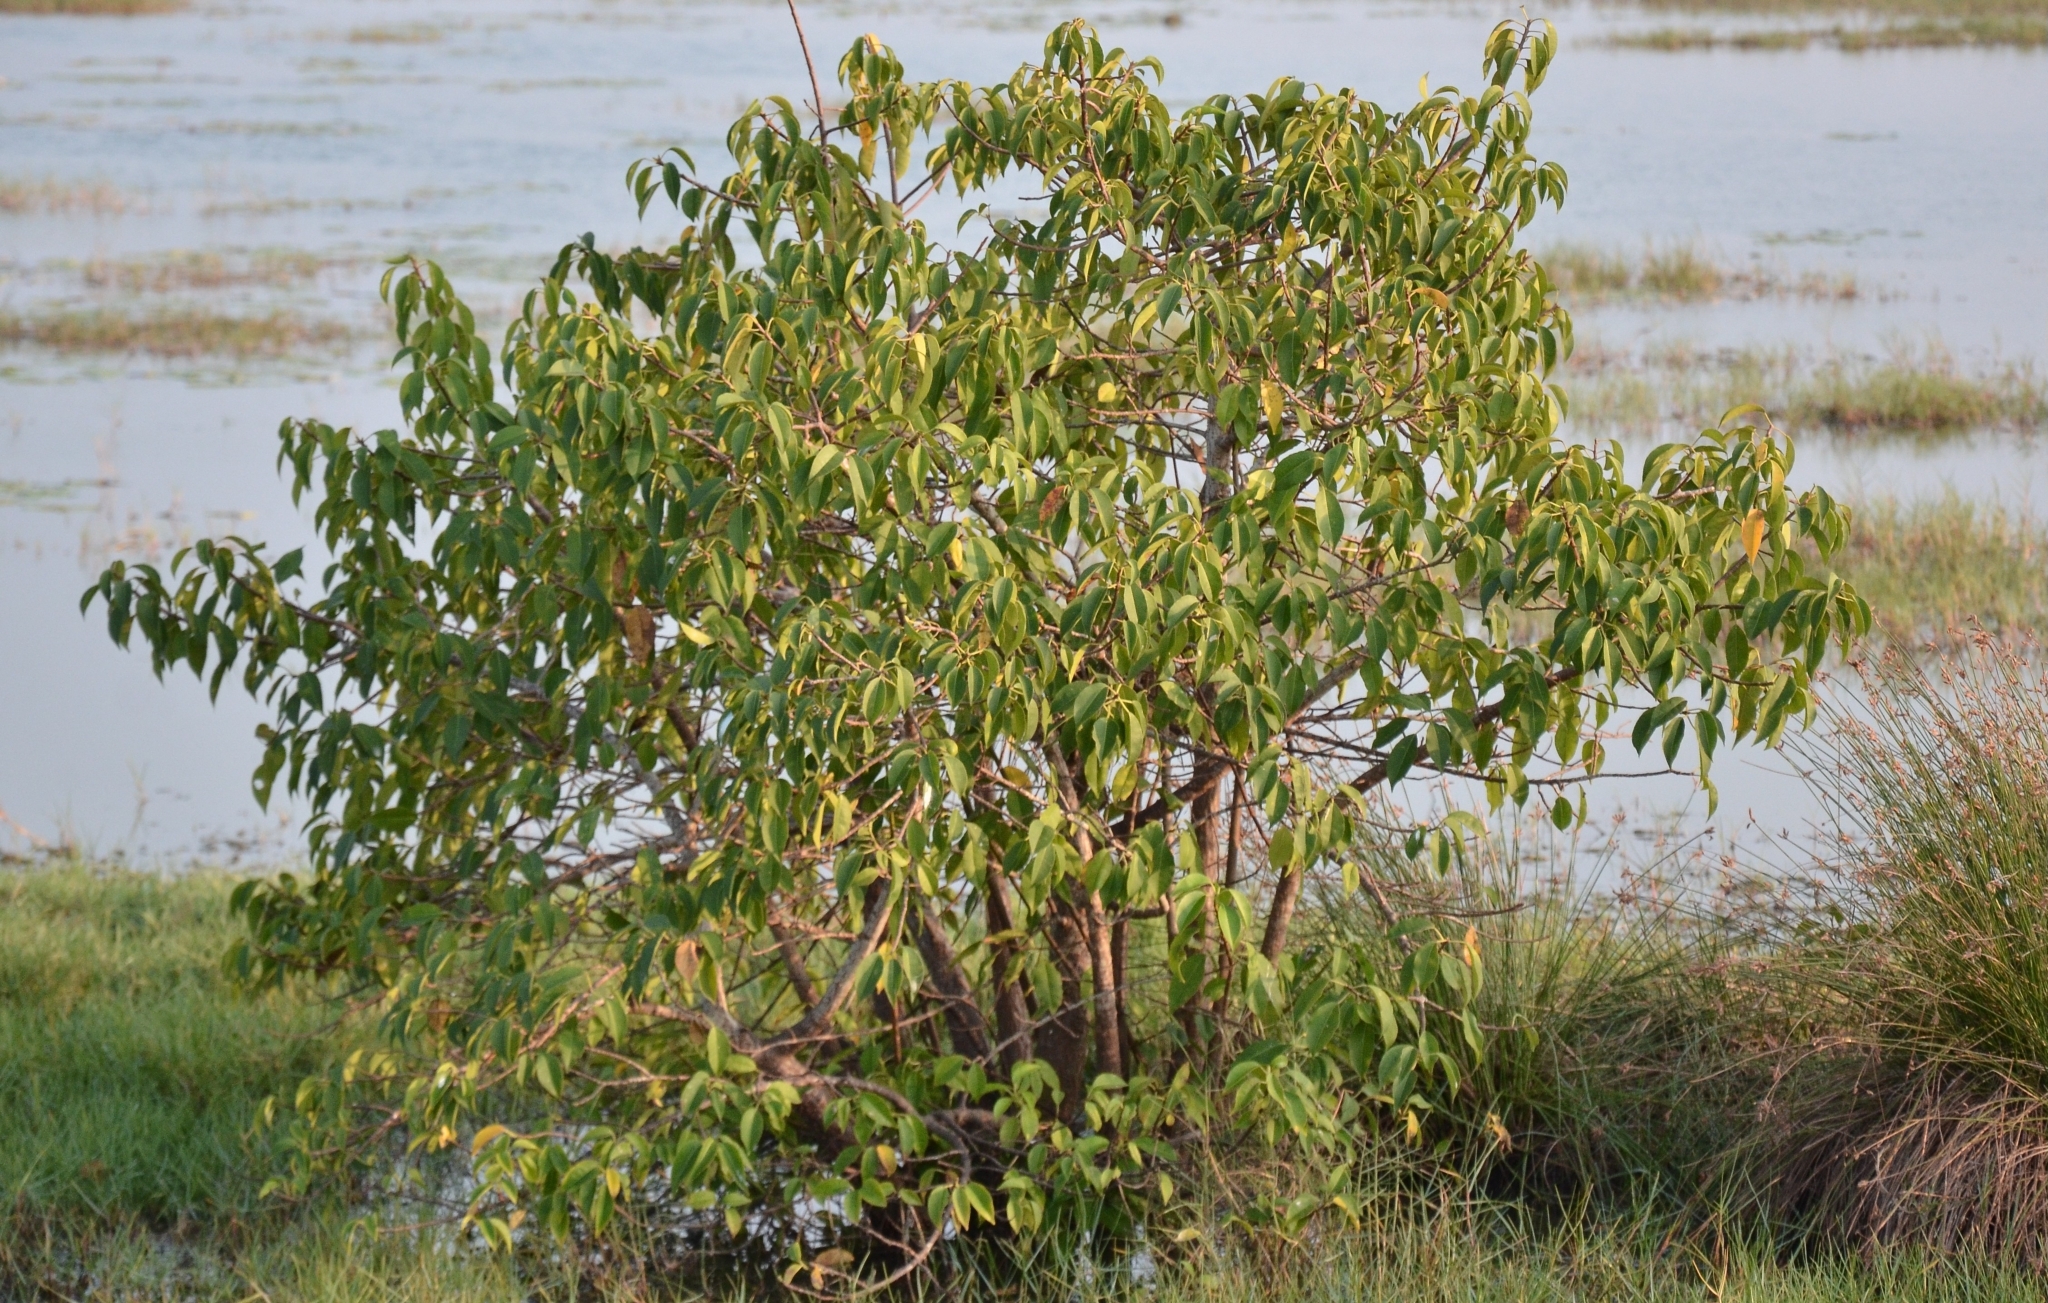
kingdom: Plantae
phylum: Tracheophyta
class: Magnoliopsida
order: Malpighiales
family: Euphorbiaceae
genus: Excoecaria
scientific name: Excoecaria agallocha
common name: River poisontree
